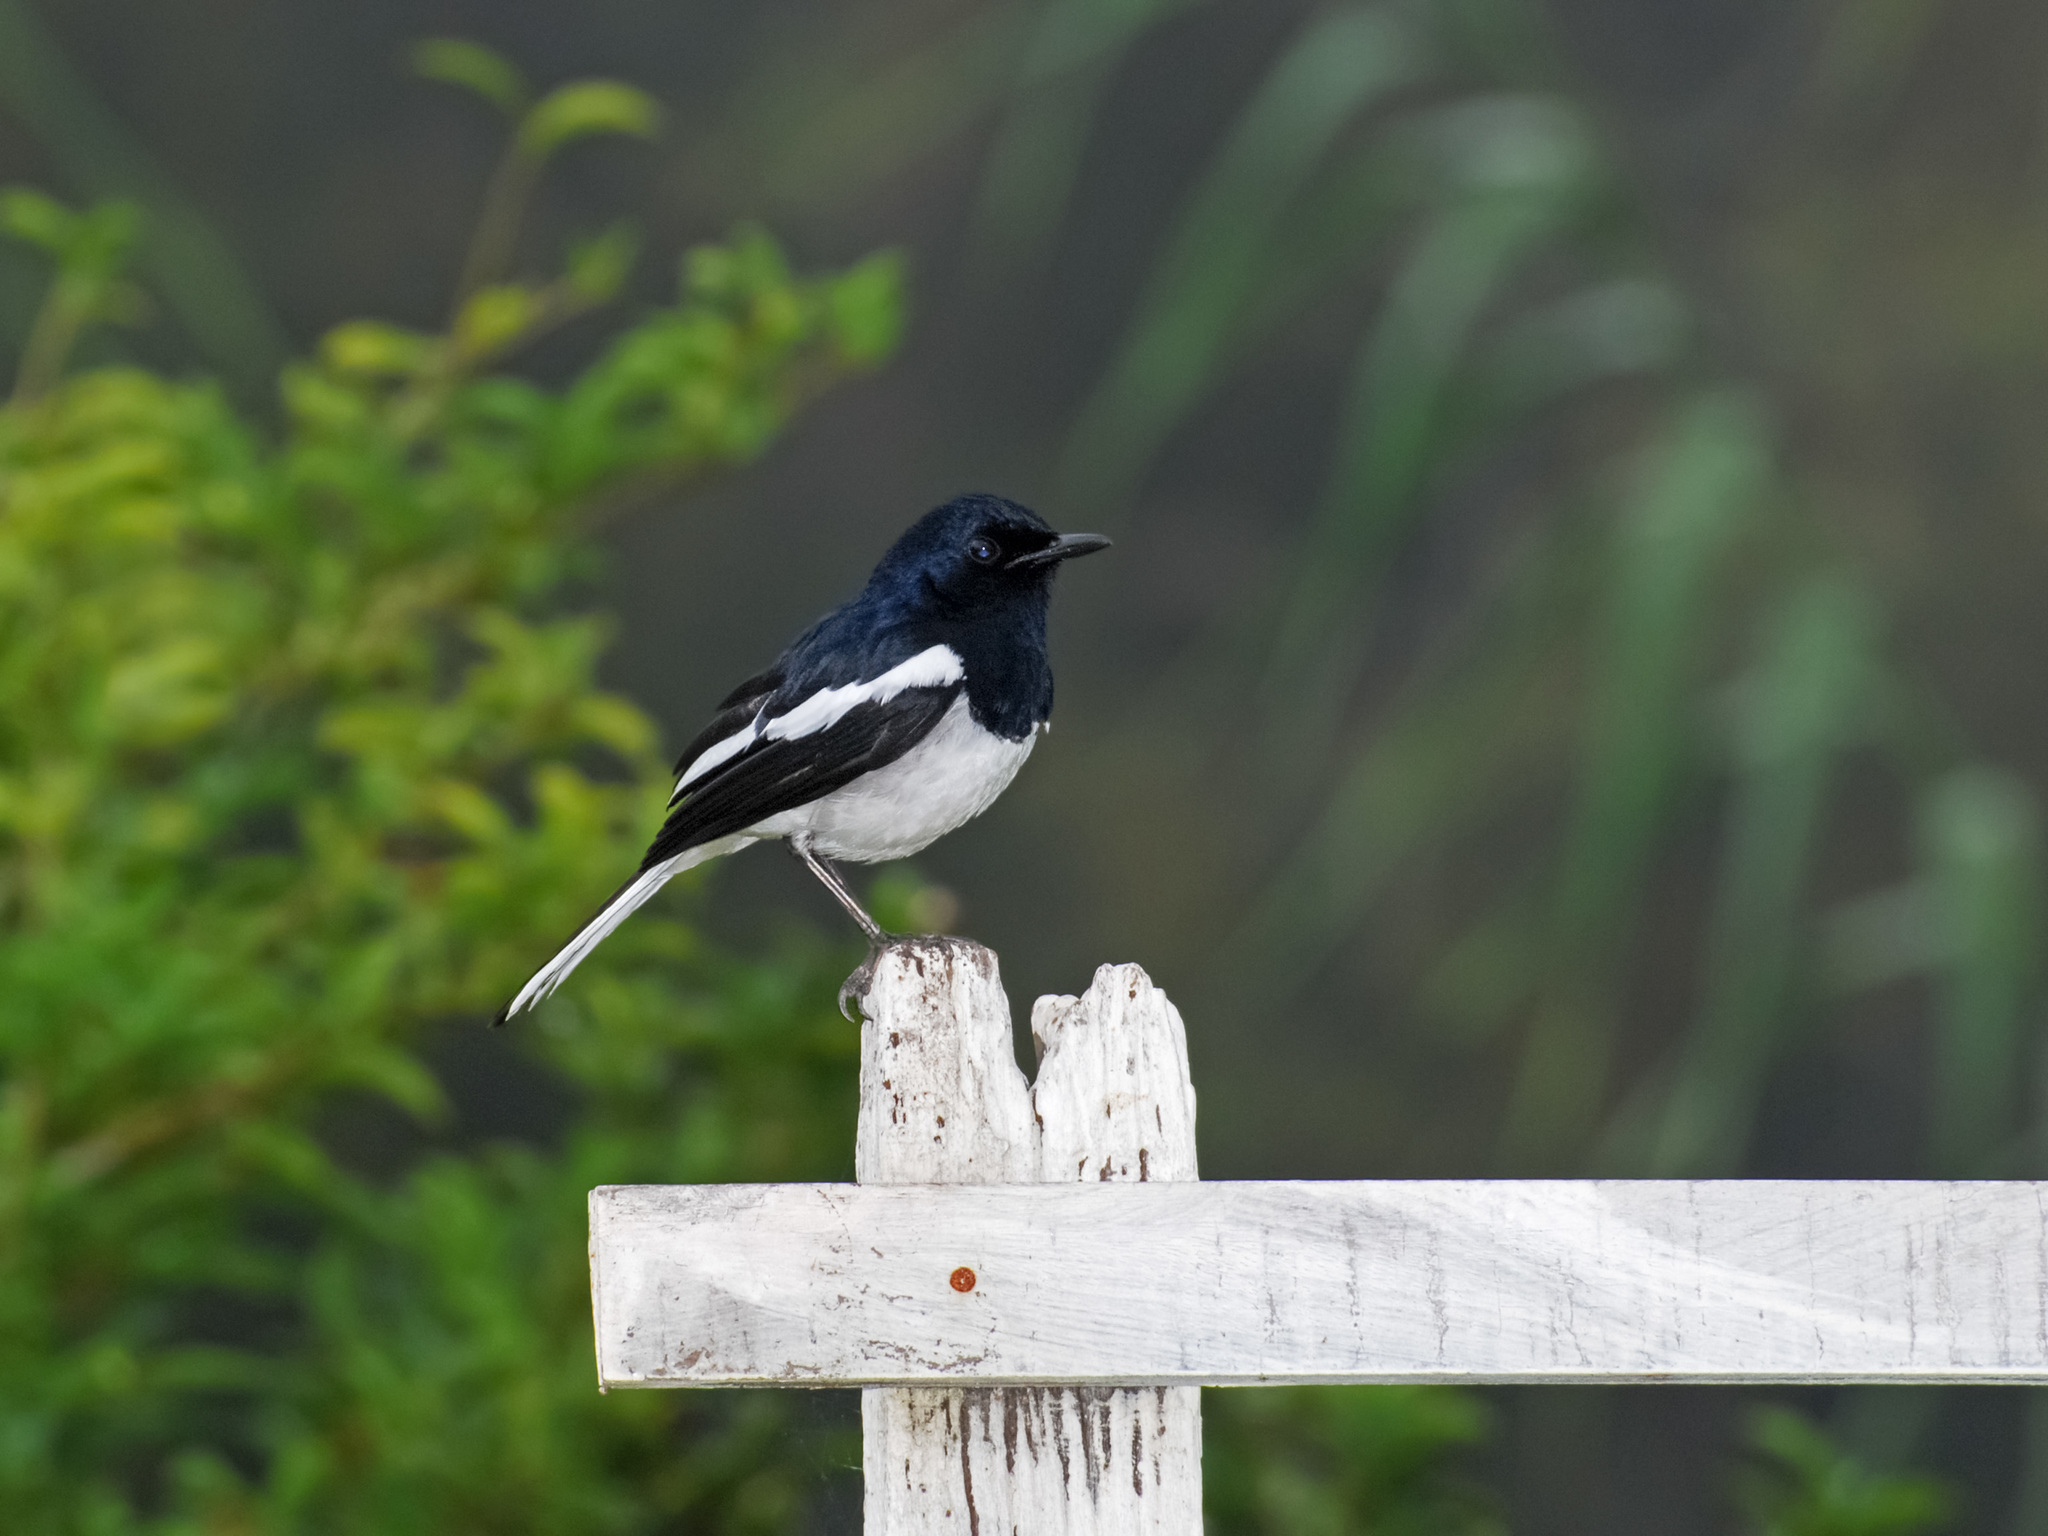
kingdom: Animalia
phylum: Chordata
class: Aves
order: Passeriformes
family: Muscicapidae
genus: Copsychus
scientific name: Copsychus saularis
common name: Oriental magpie-robin
